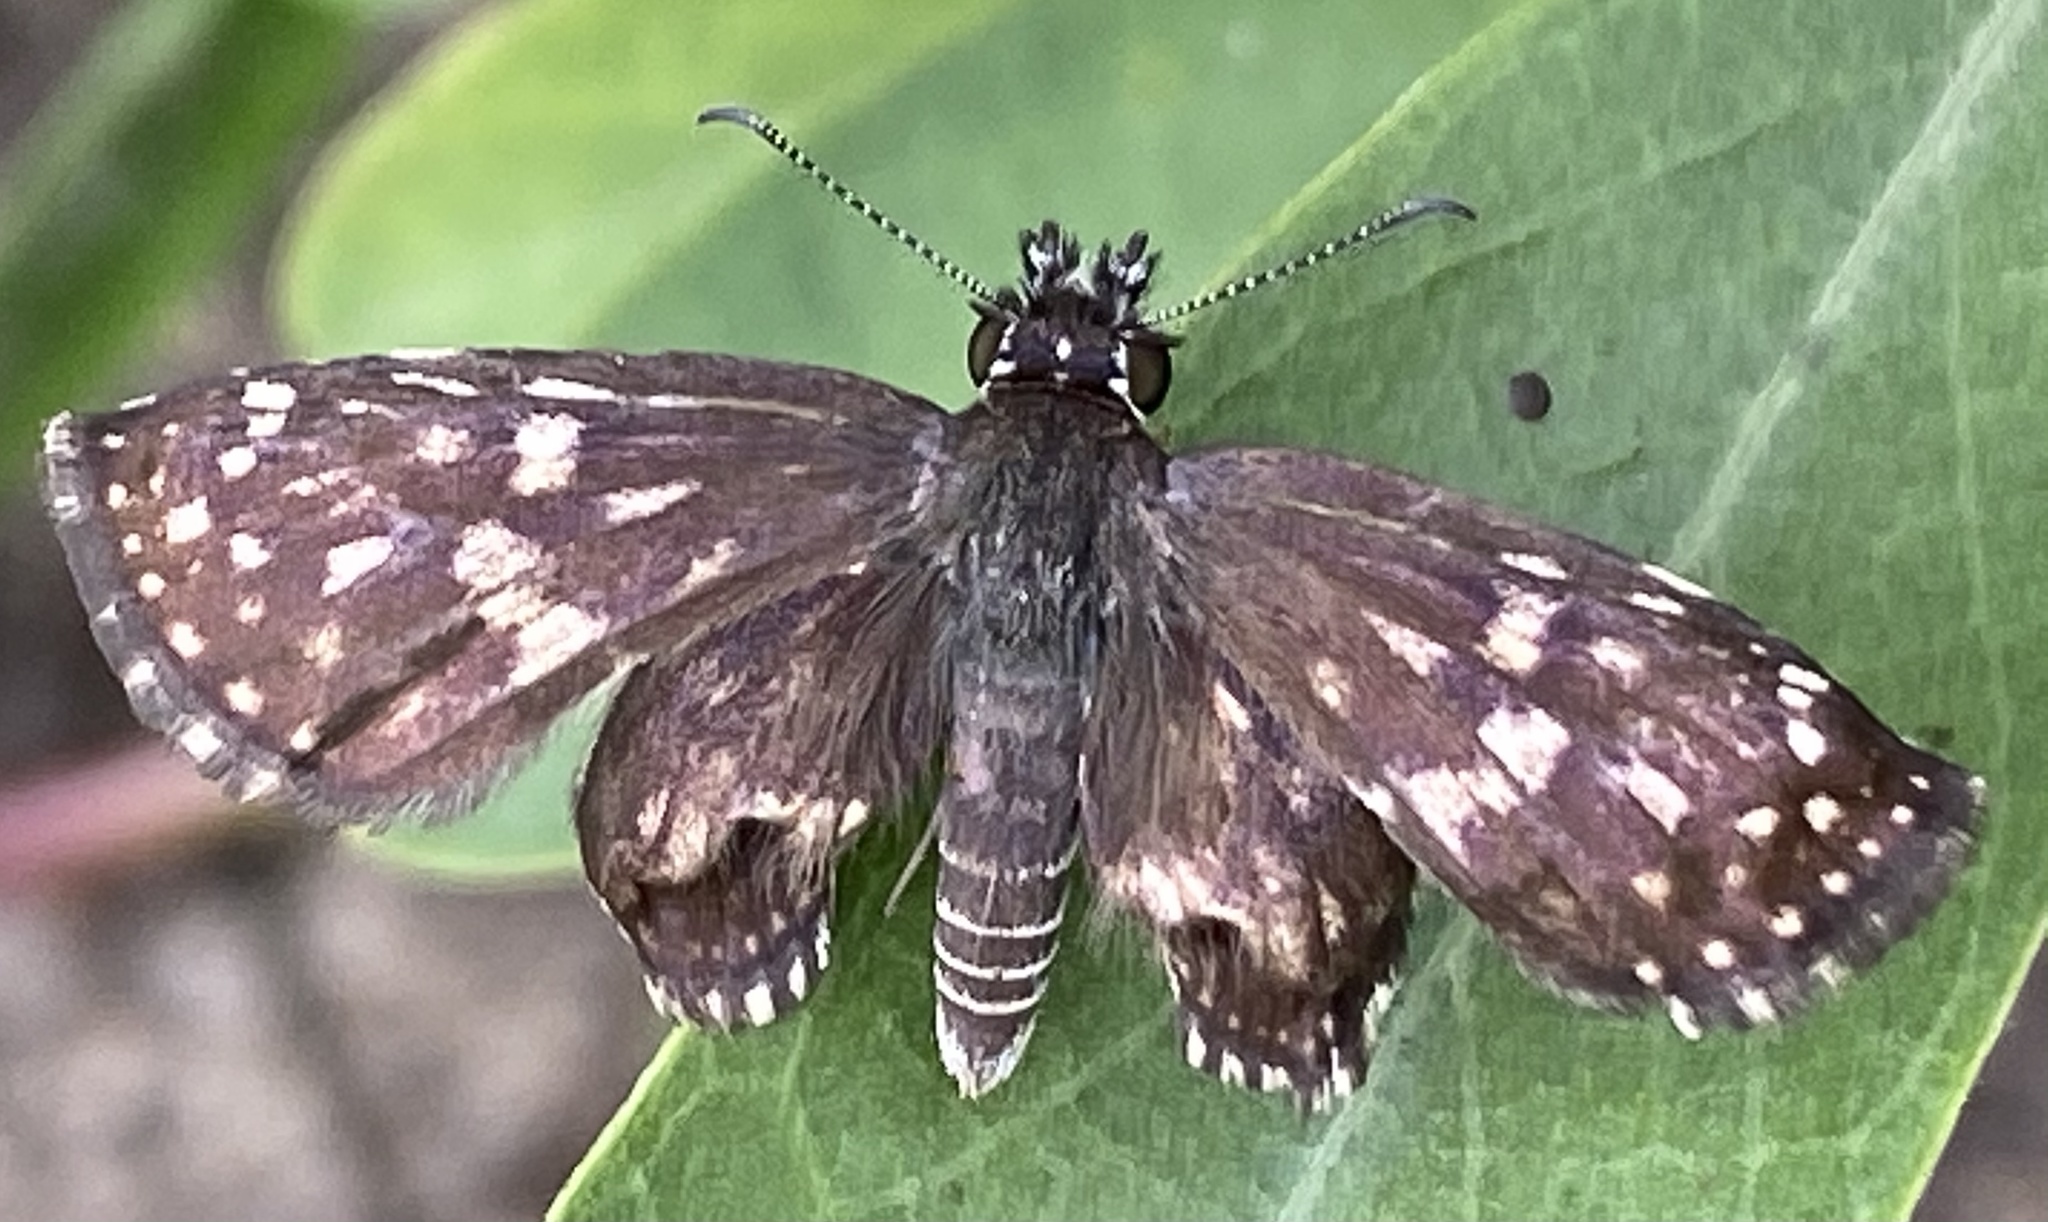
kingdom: Animalia
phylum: Arthropoda
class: Insecta
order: Lepidoptera
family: Hesperiidae
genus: Burnsius
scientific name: Burnsius orcynoides
